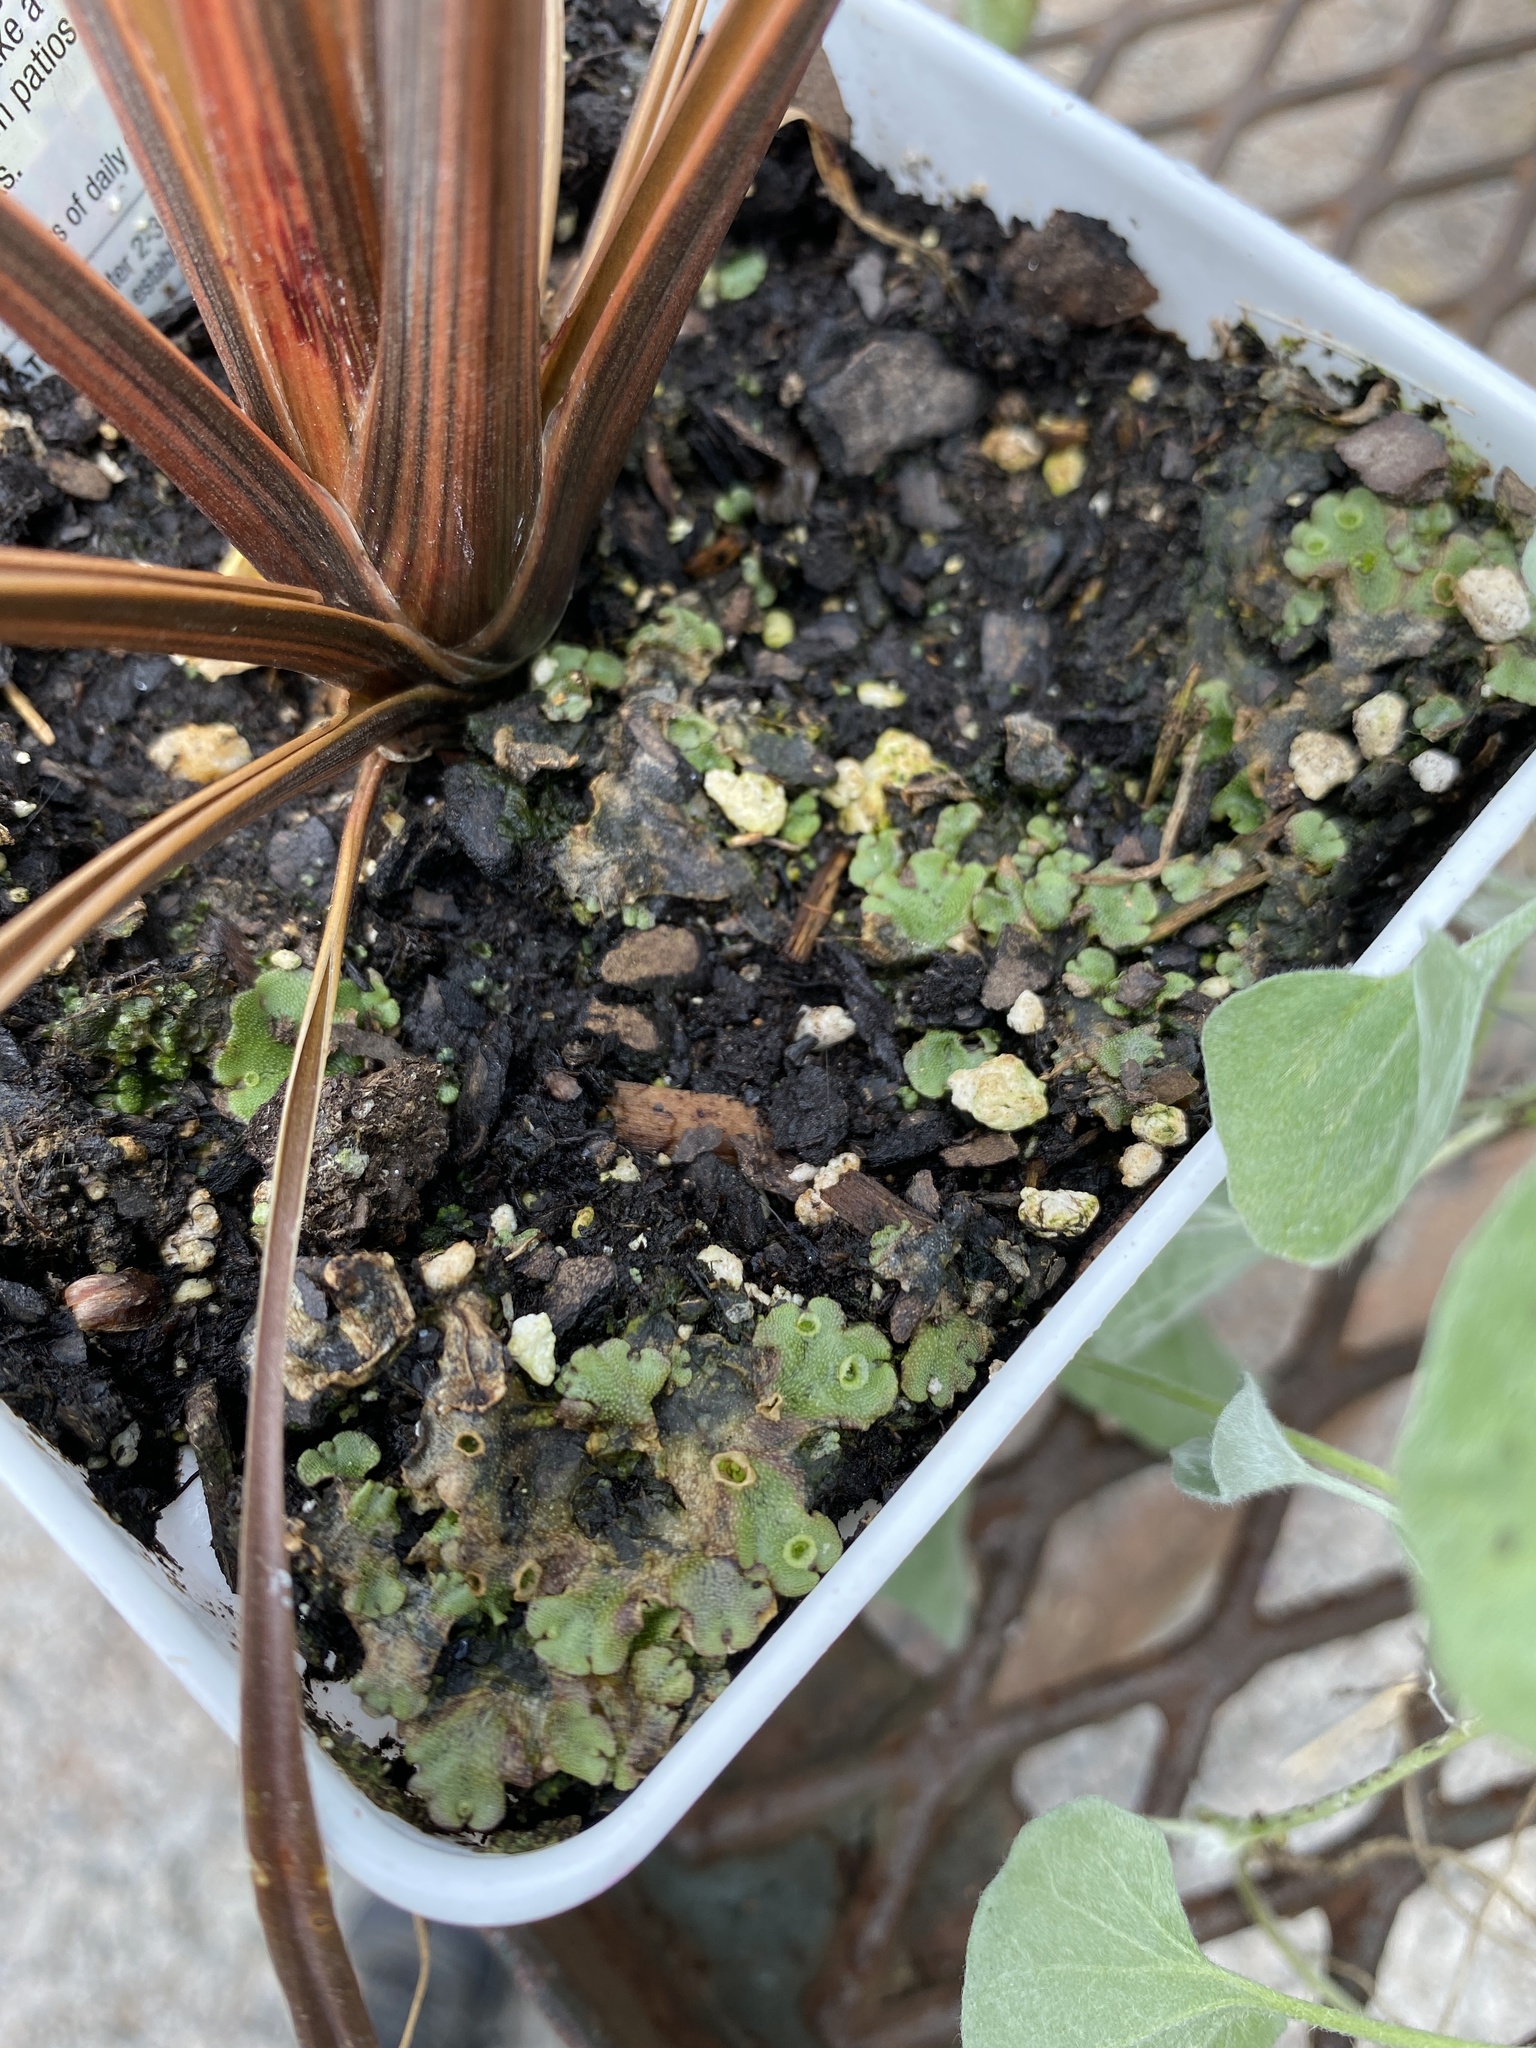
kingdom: Plantae
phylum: Marchantiophyta
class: Marchantiopsida
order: Marchantiales
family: Marchantiaceae
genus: Marchantia
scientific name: Marchantia polymorpha
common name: Common liverwort
